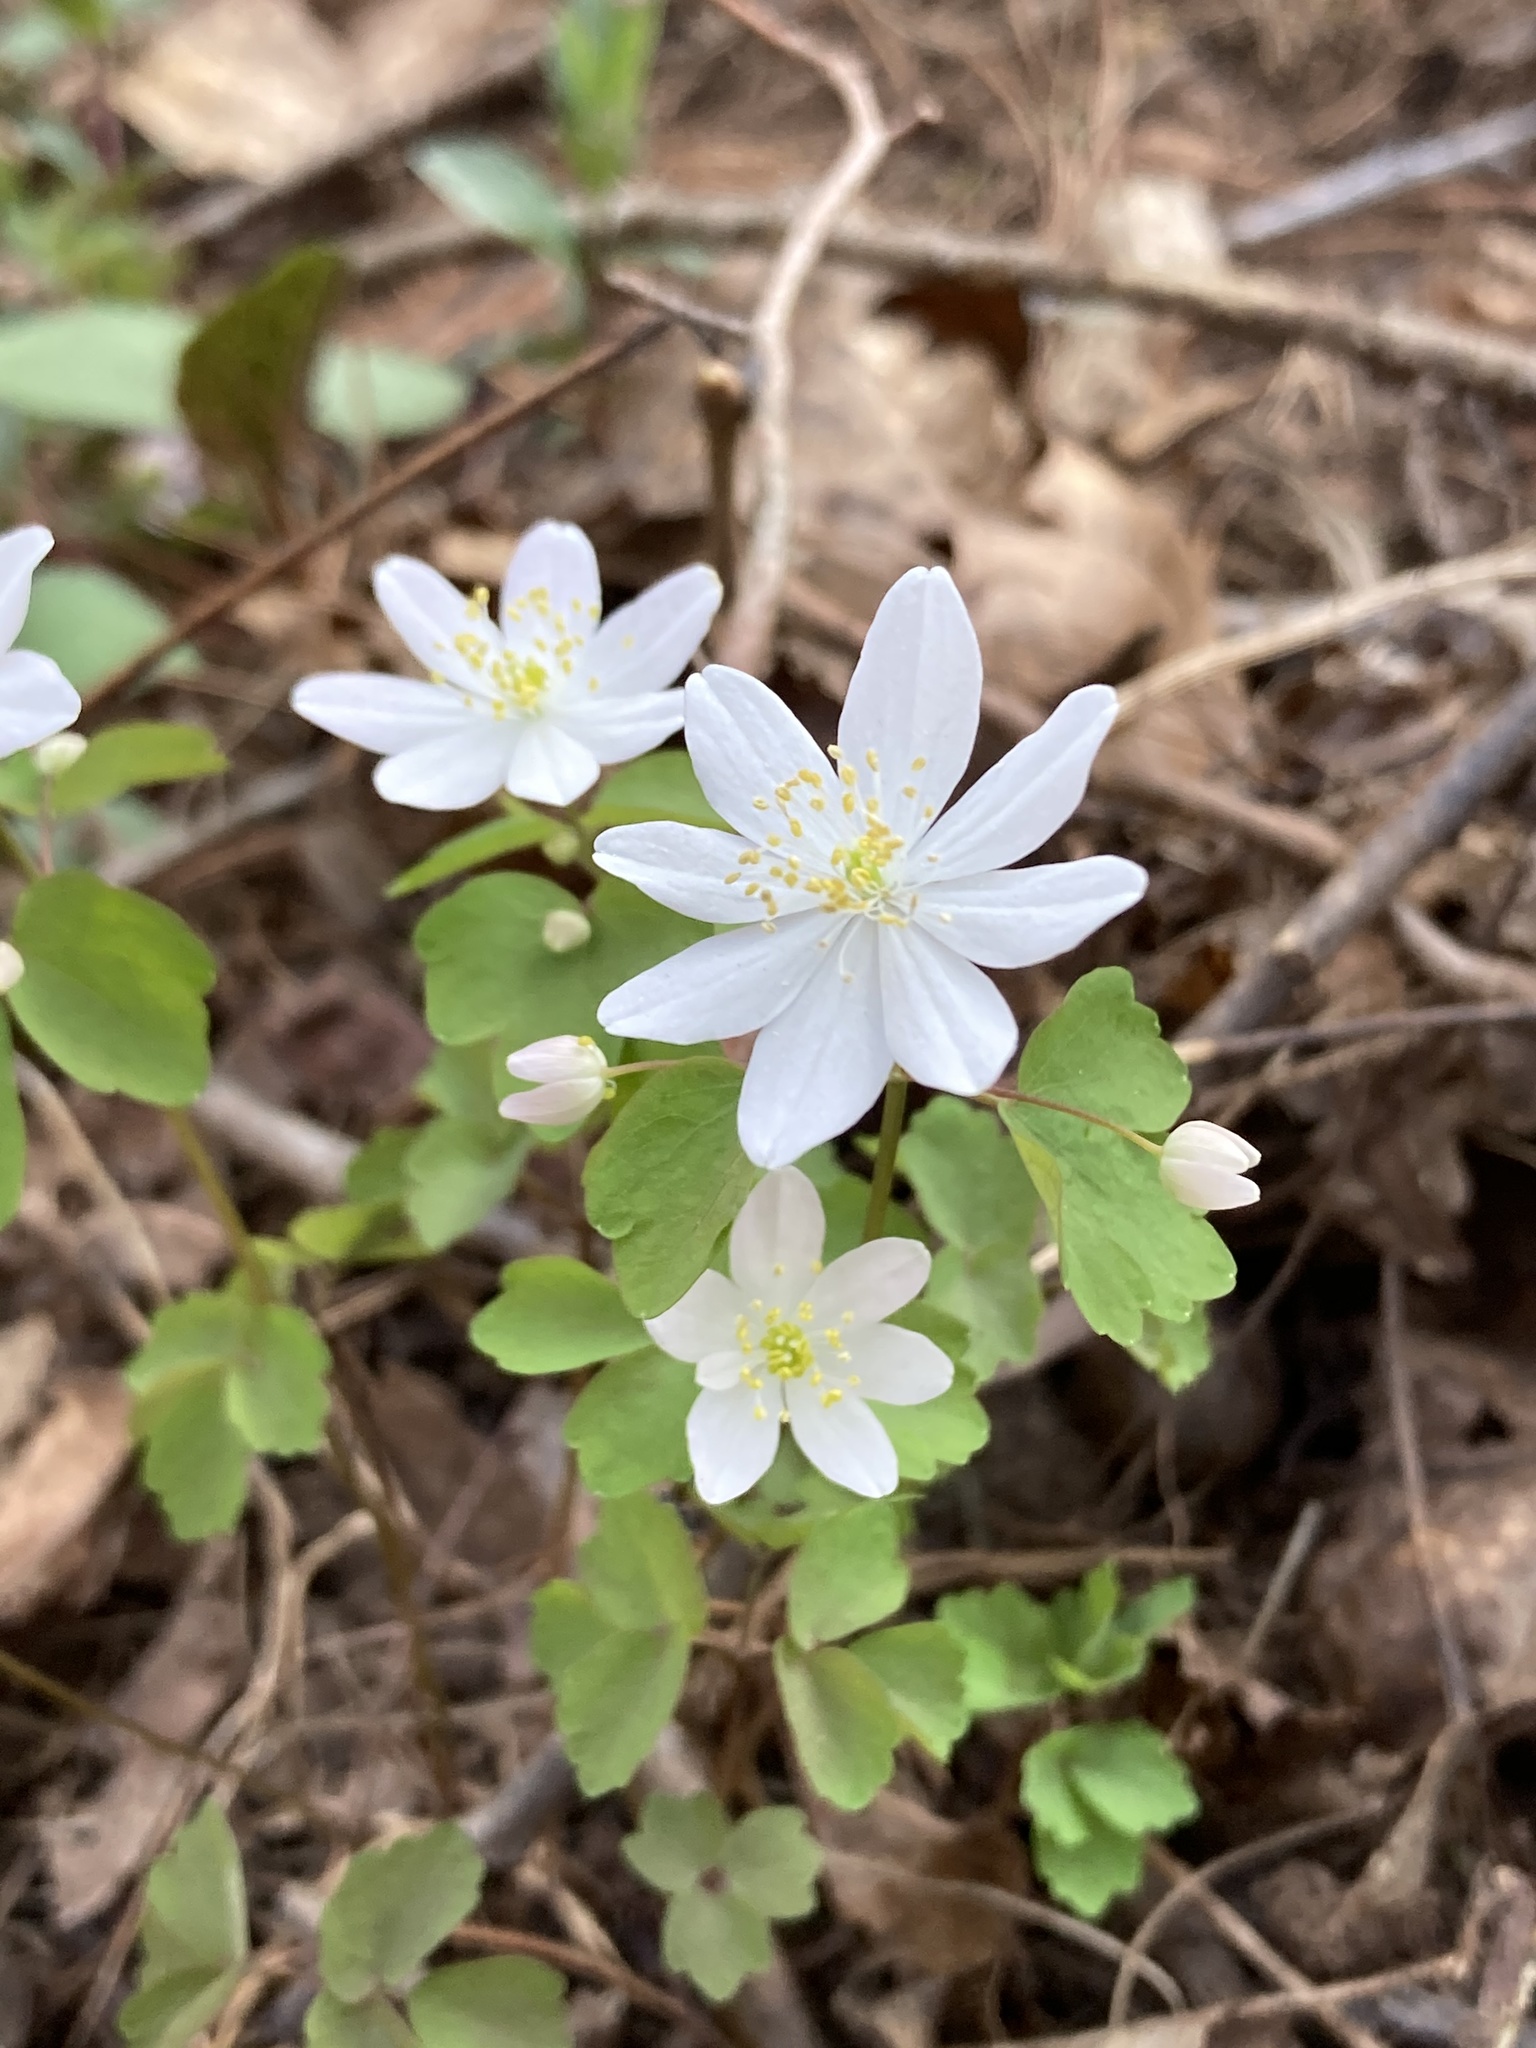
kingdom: Plantae
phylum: Tracheophyta
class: Magnoliopsida
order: Ranunculales
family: Ranunculaceae
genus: Thalictrum
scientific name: Thalictrum thalictroides
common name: Rue-anemone
